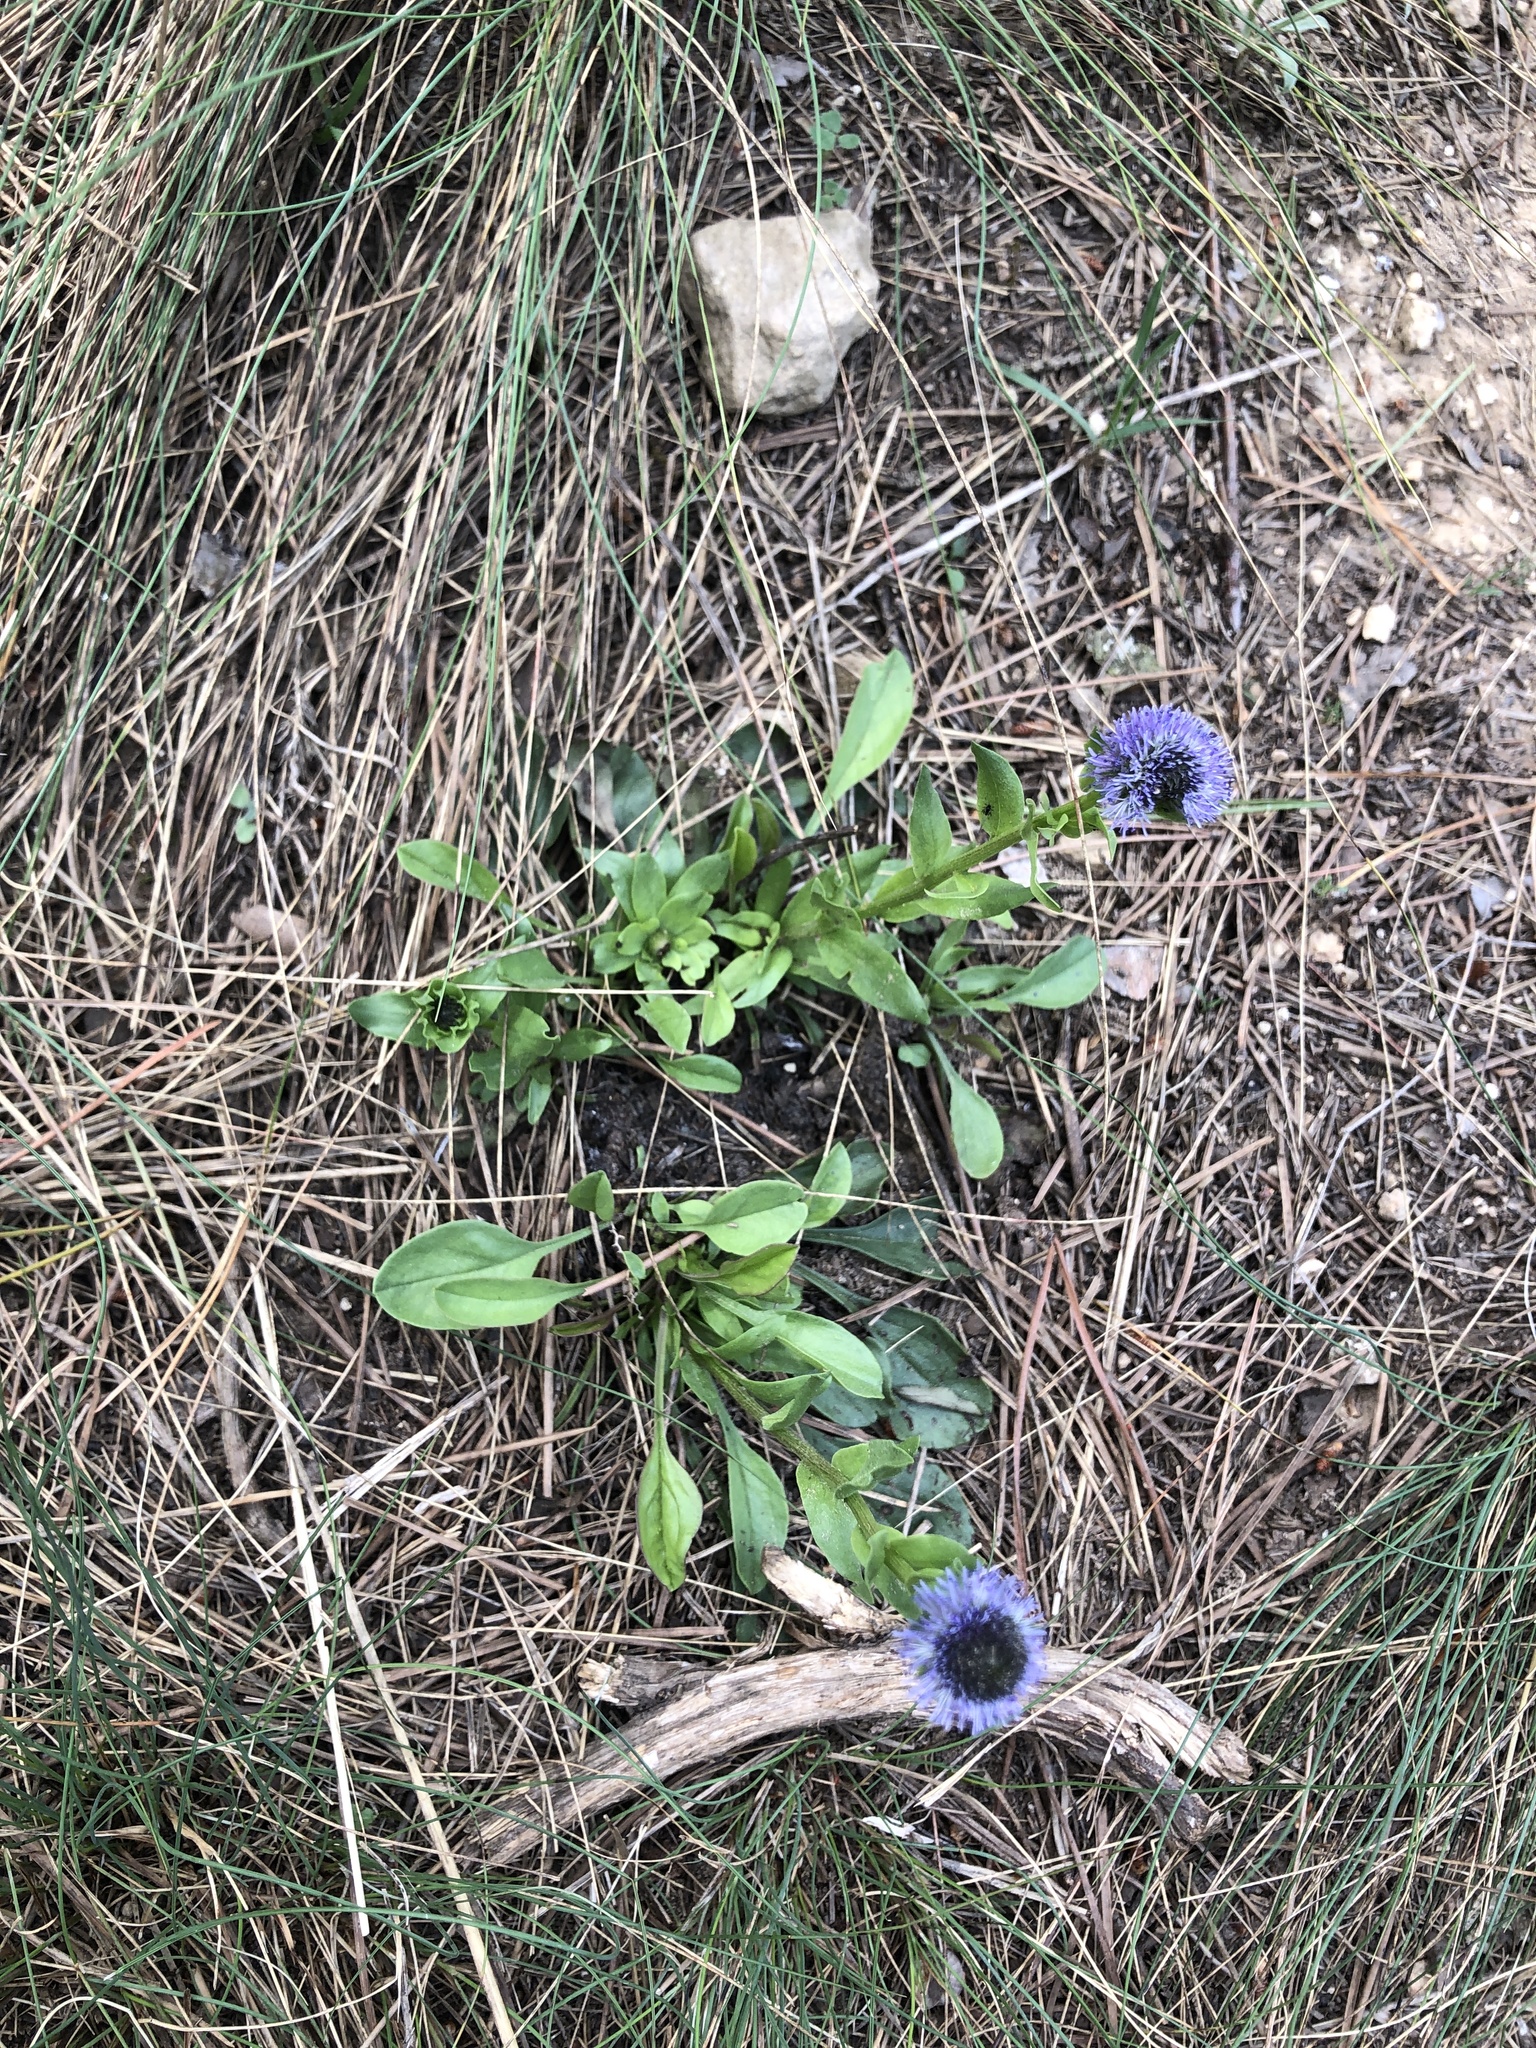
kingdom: Plantae
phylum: Tracheophyta
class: Magnoliopsida
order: Lamiales
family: Plantaginaceae
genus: Globularia
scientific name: Globularia vulgaris
